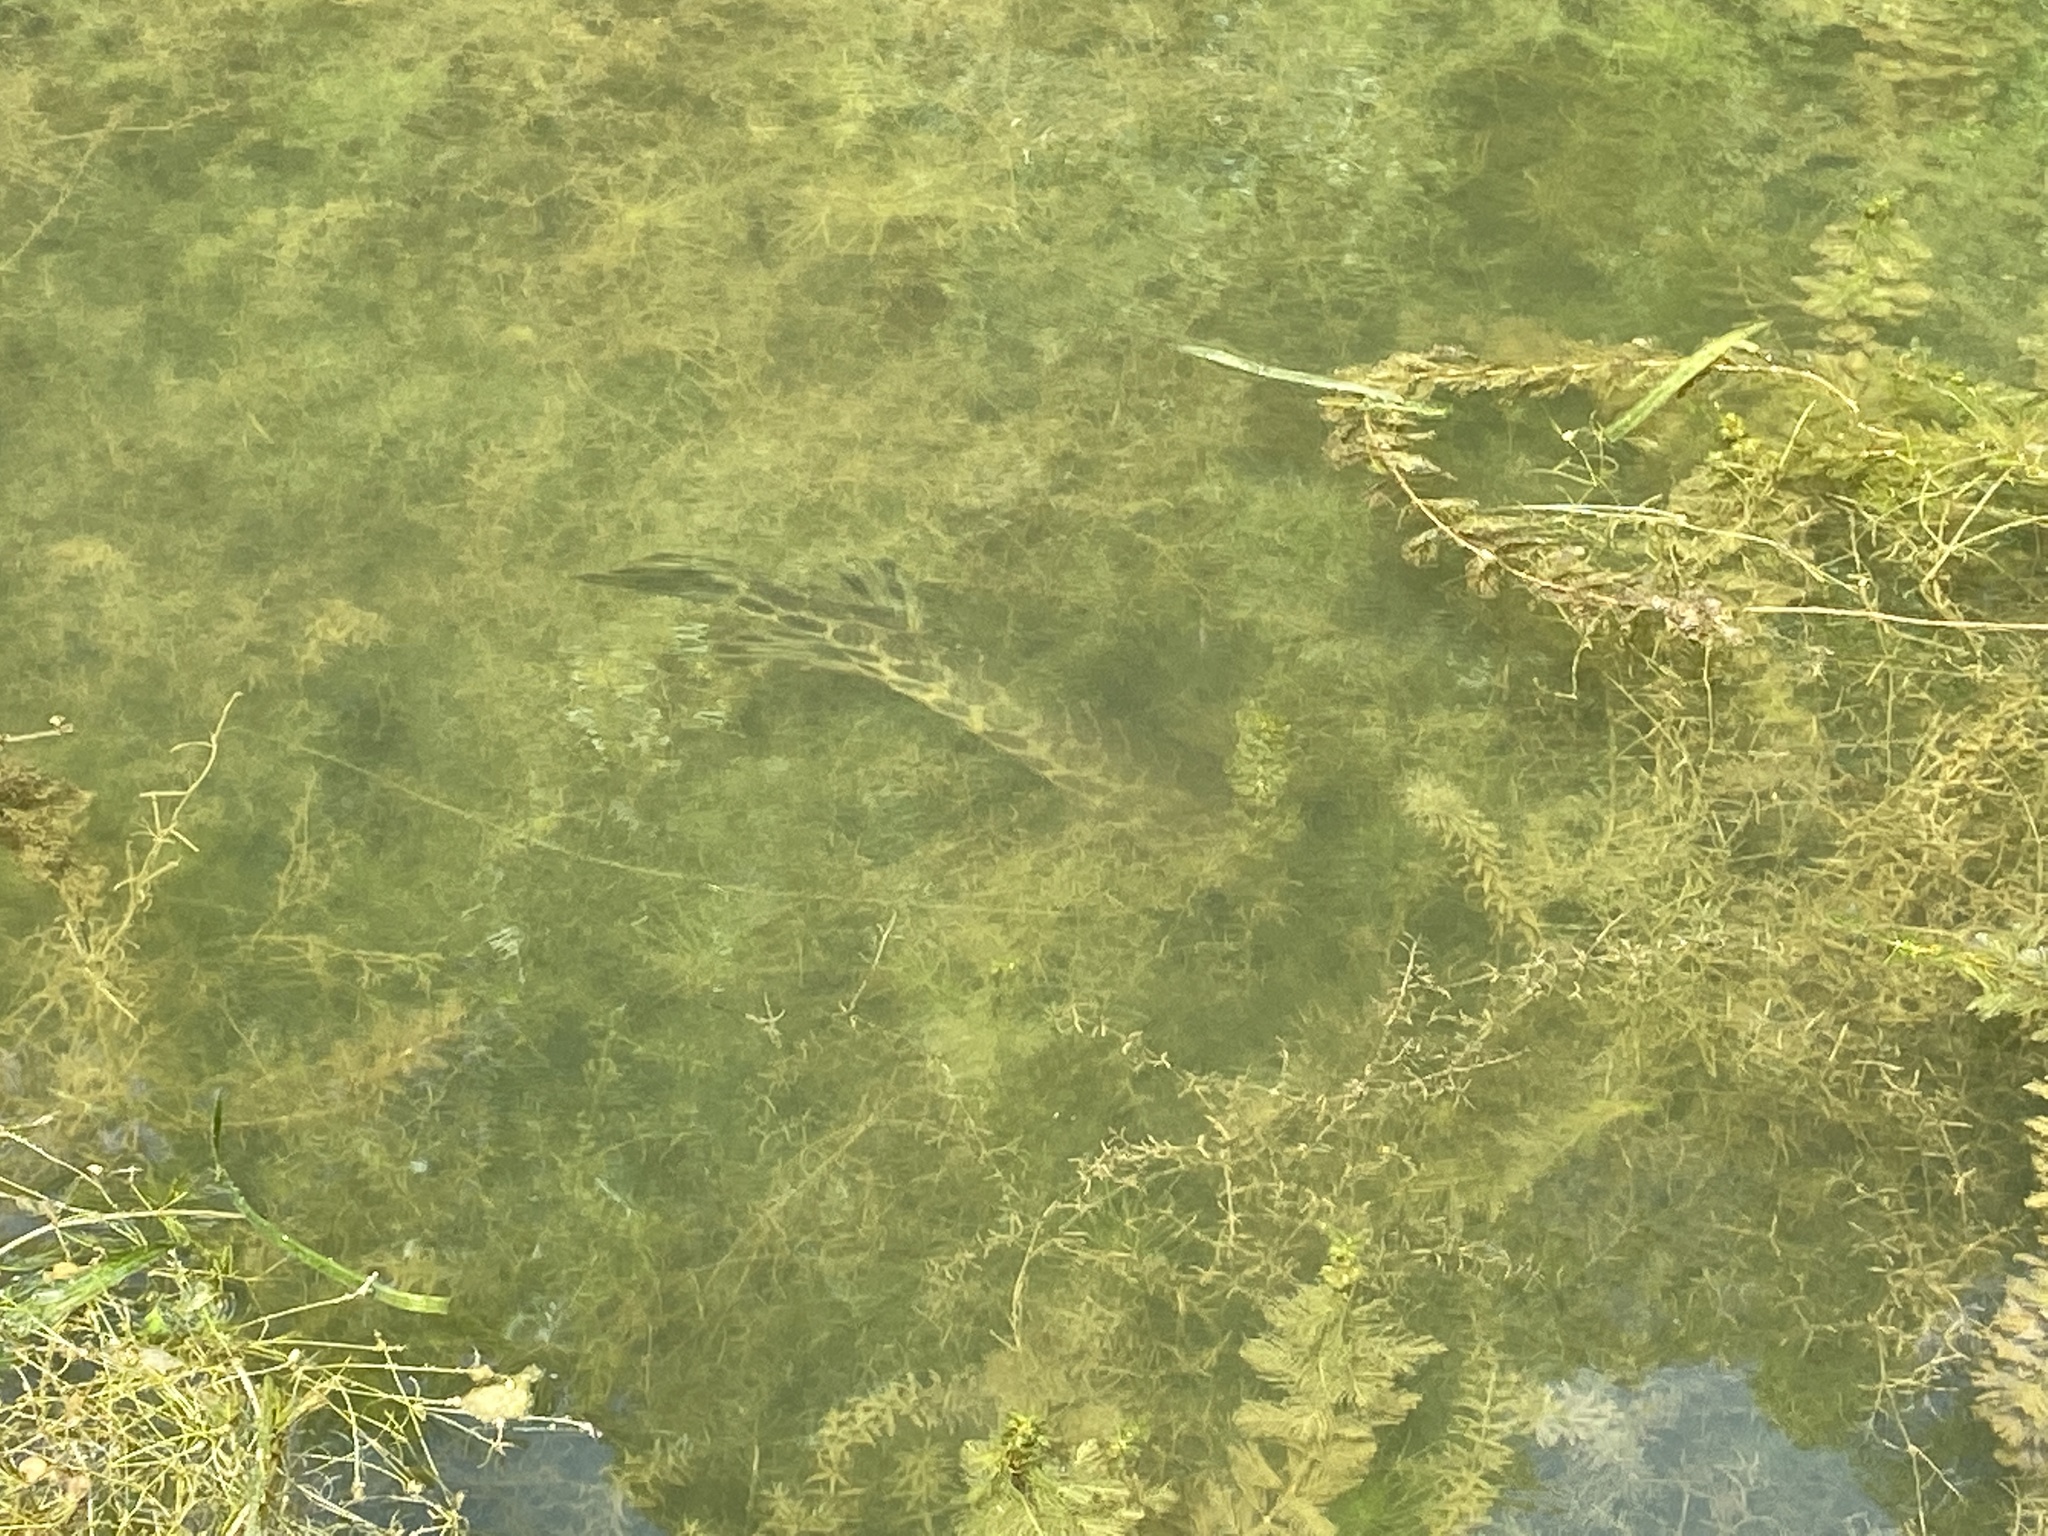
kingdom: Animalia
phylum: Chordata
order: Lepisosteiformes
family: Lepisosteidae
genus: Lepisosteus
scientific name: Lepisosteus oculatus
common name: Spotted gar
